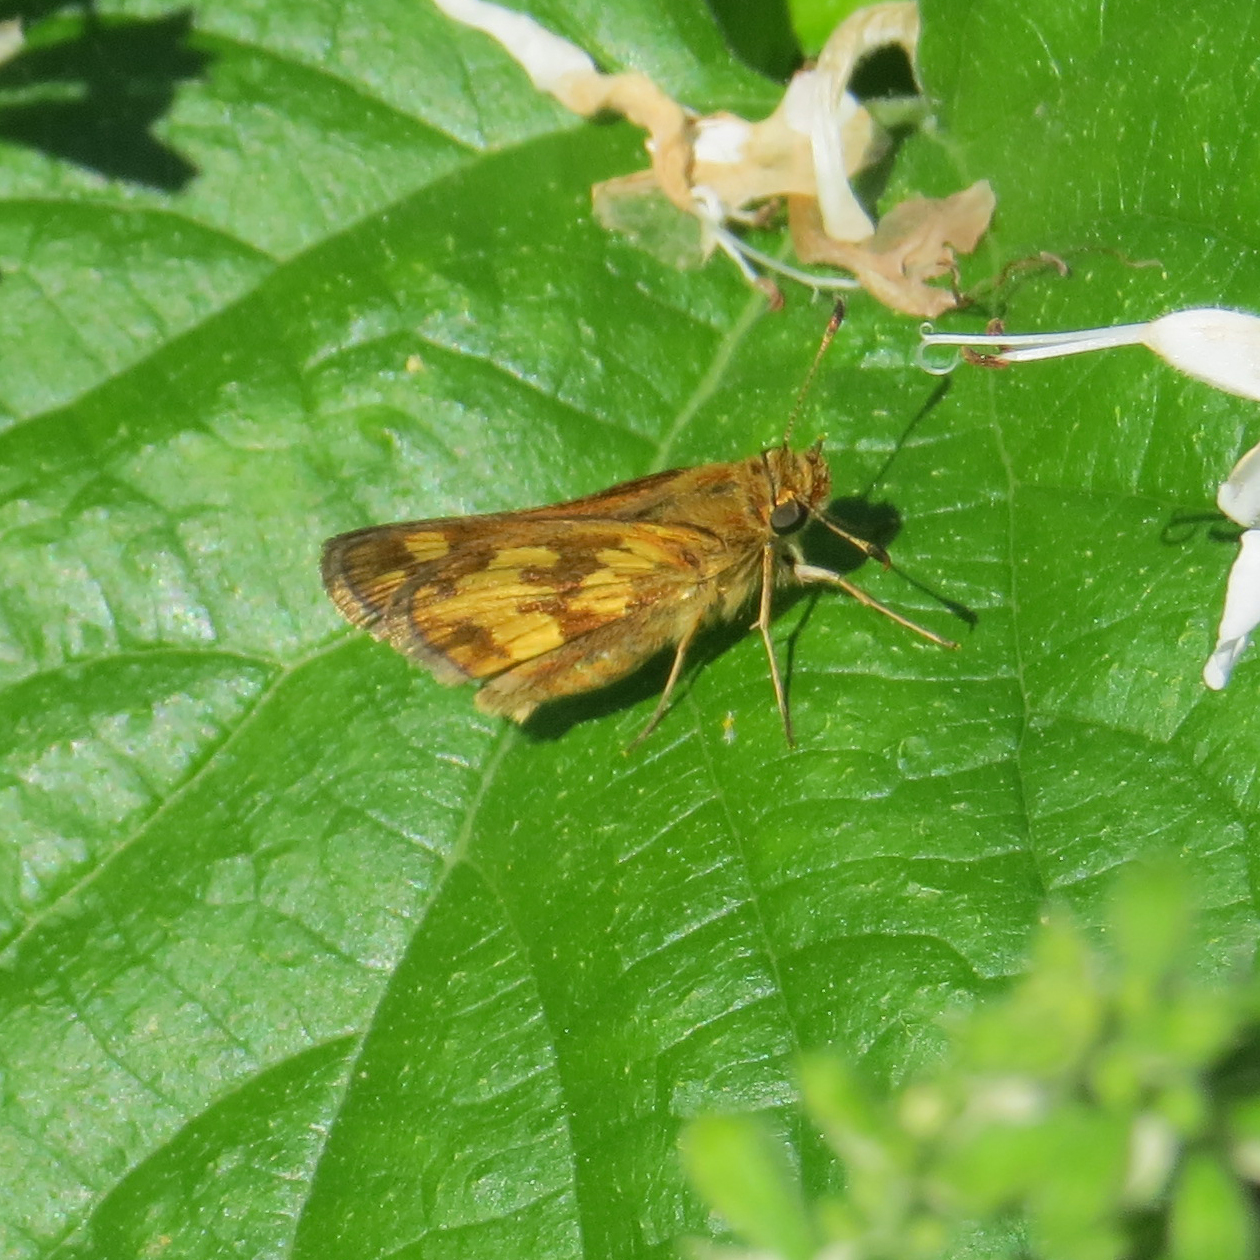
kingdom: Animalia
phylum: Arthropoda
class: Insecta
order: Lepidoptera
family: Hesperiidae
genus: Polites
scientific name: Polites coras
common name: Peck's skipper
